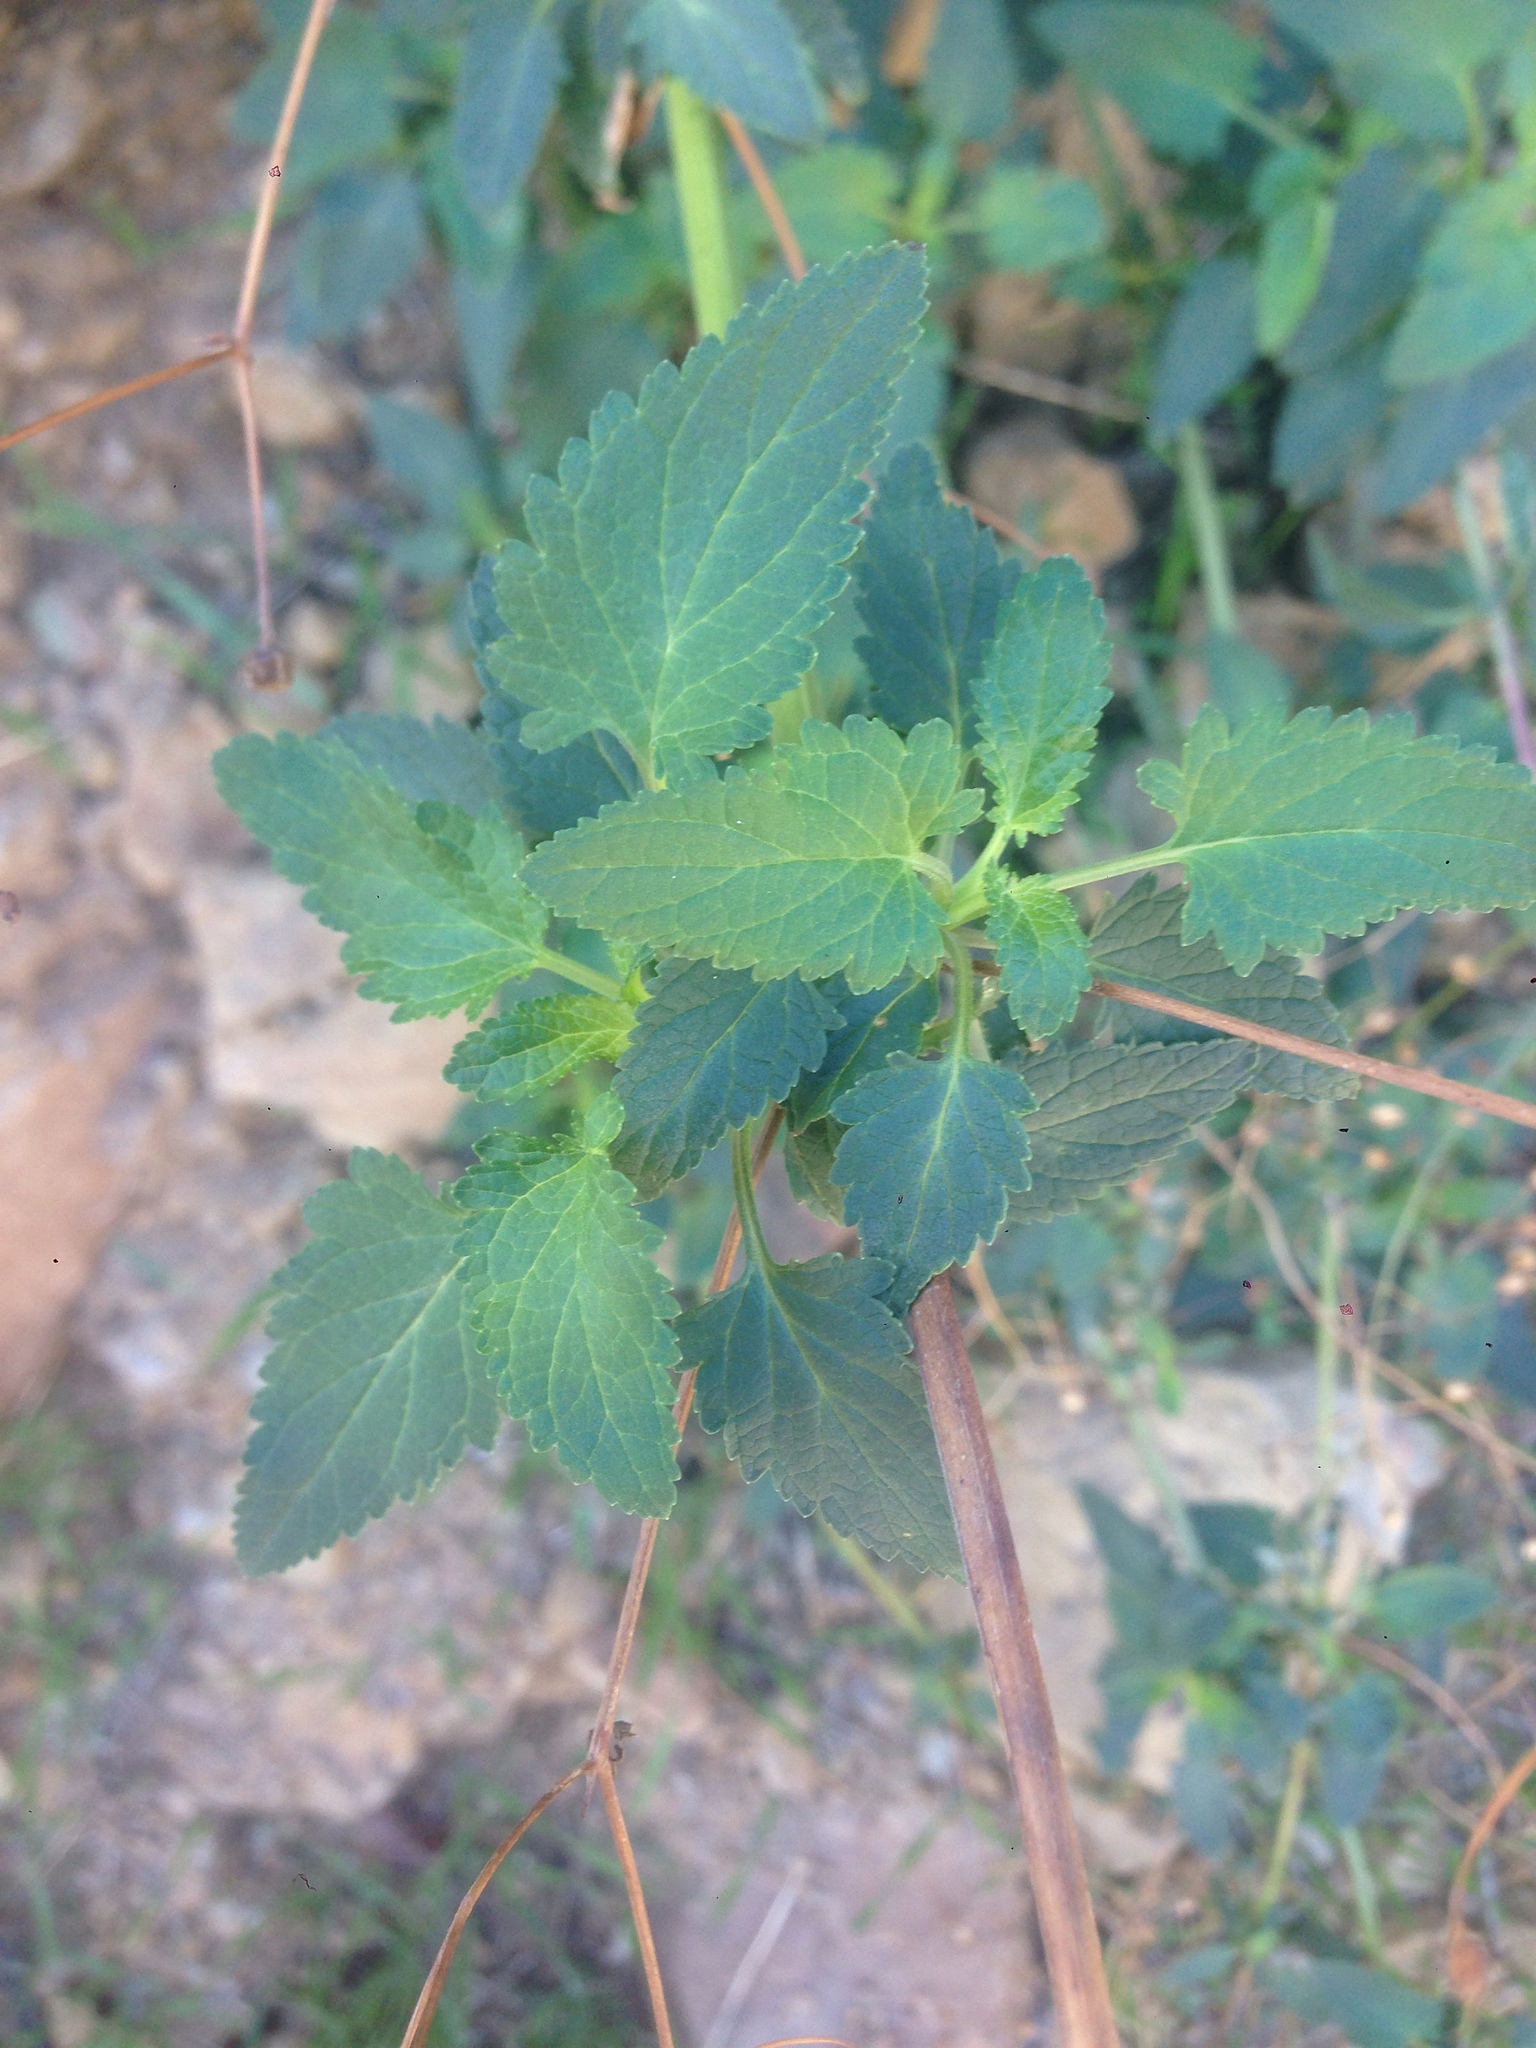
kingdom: Plantae
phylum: Tracheophyta
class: Magnoliopsida
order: Lamiales
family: Scrophulariaceae
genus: Scrophularia
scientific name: Scrophularia californica
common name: California figwort
